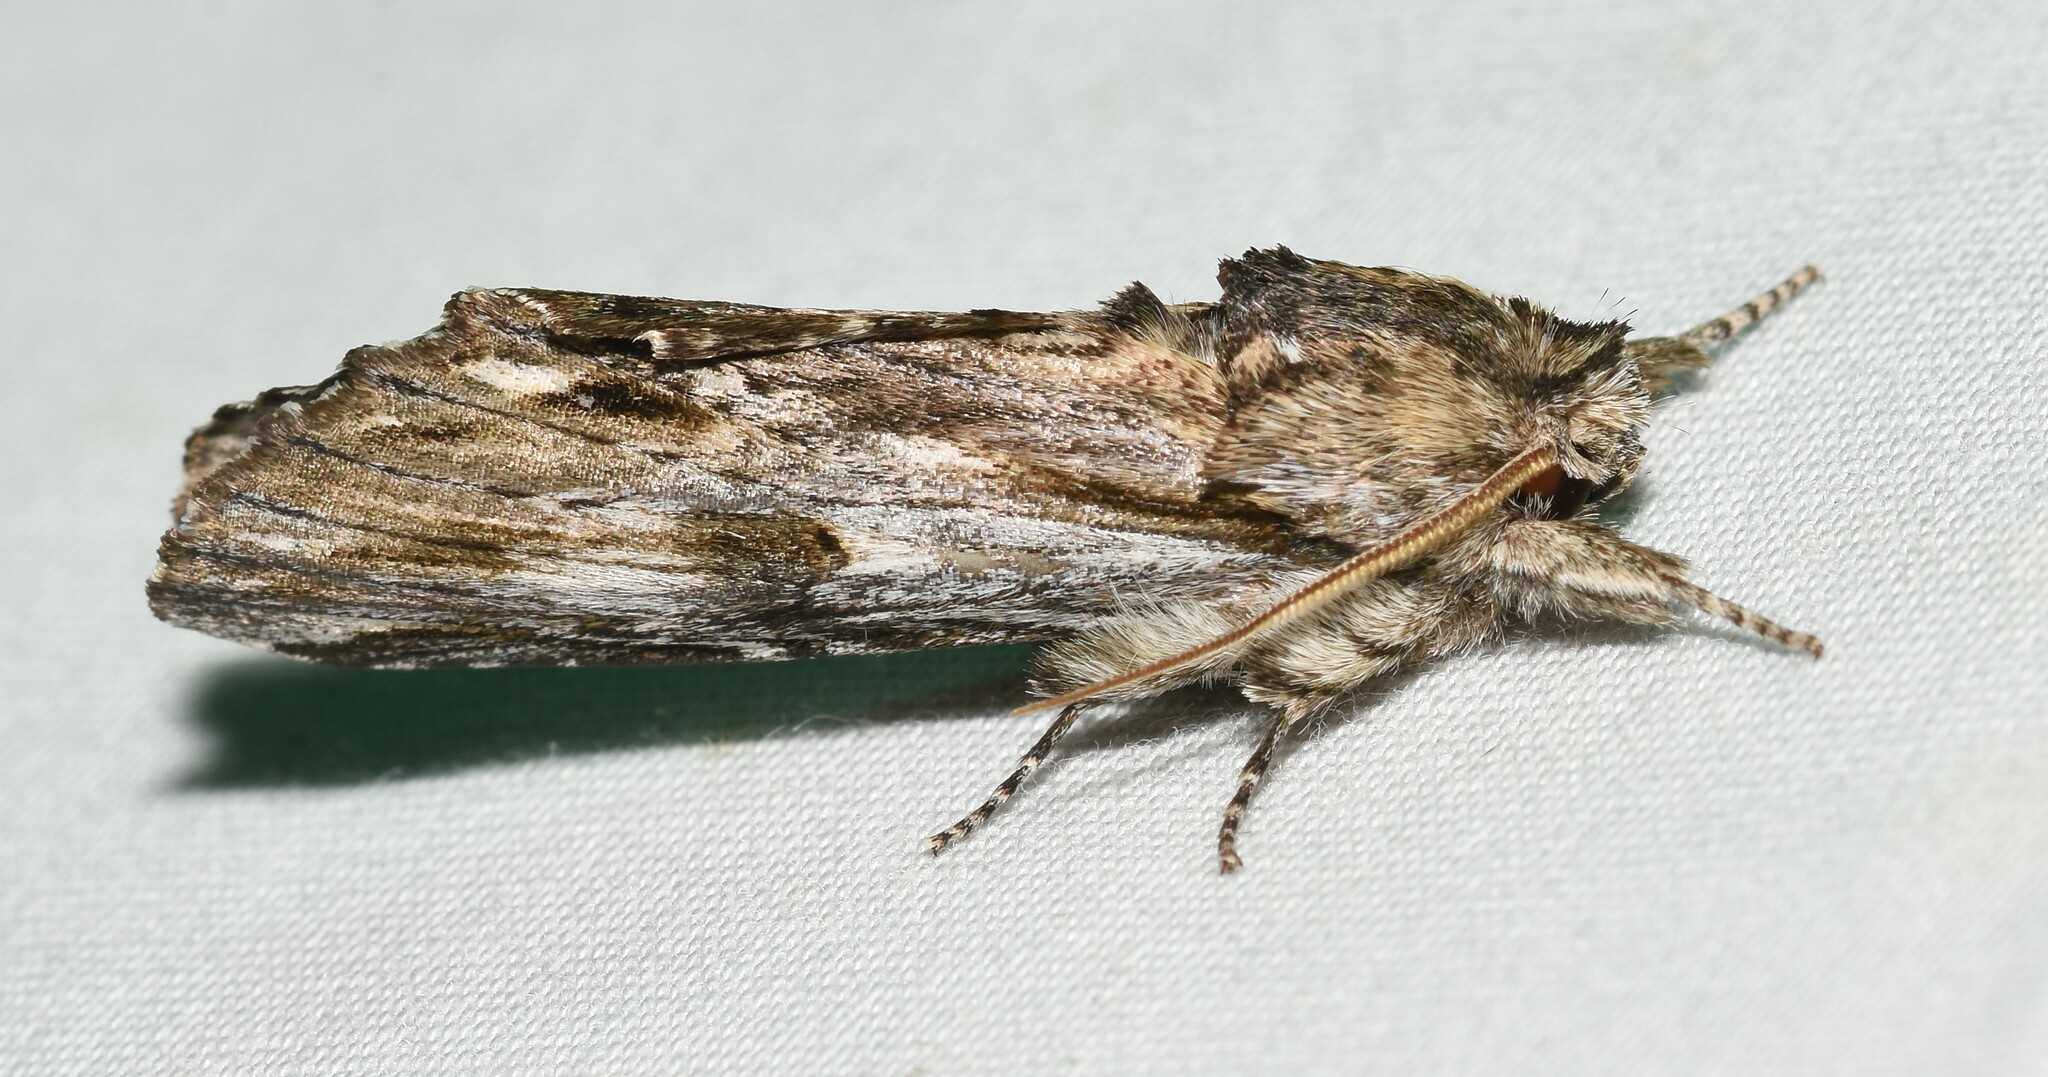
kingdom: Animalia
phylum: Arthropoda
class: Insecta
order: Lepidoptera
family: Notodontidae
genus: Oligocentria
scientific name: Oligocentria Ianassa lignicolor
